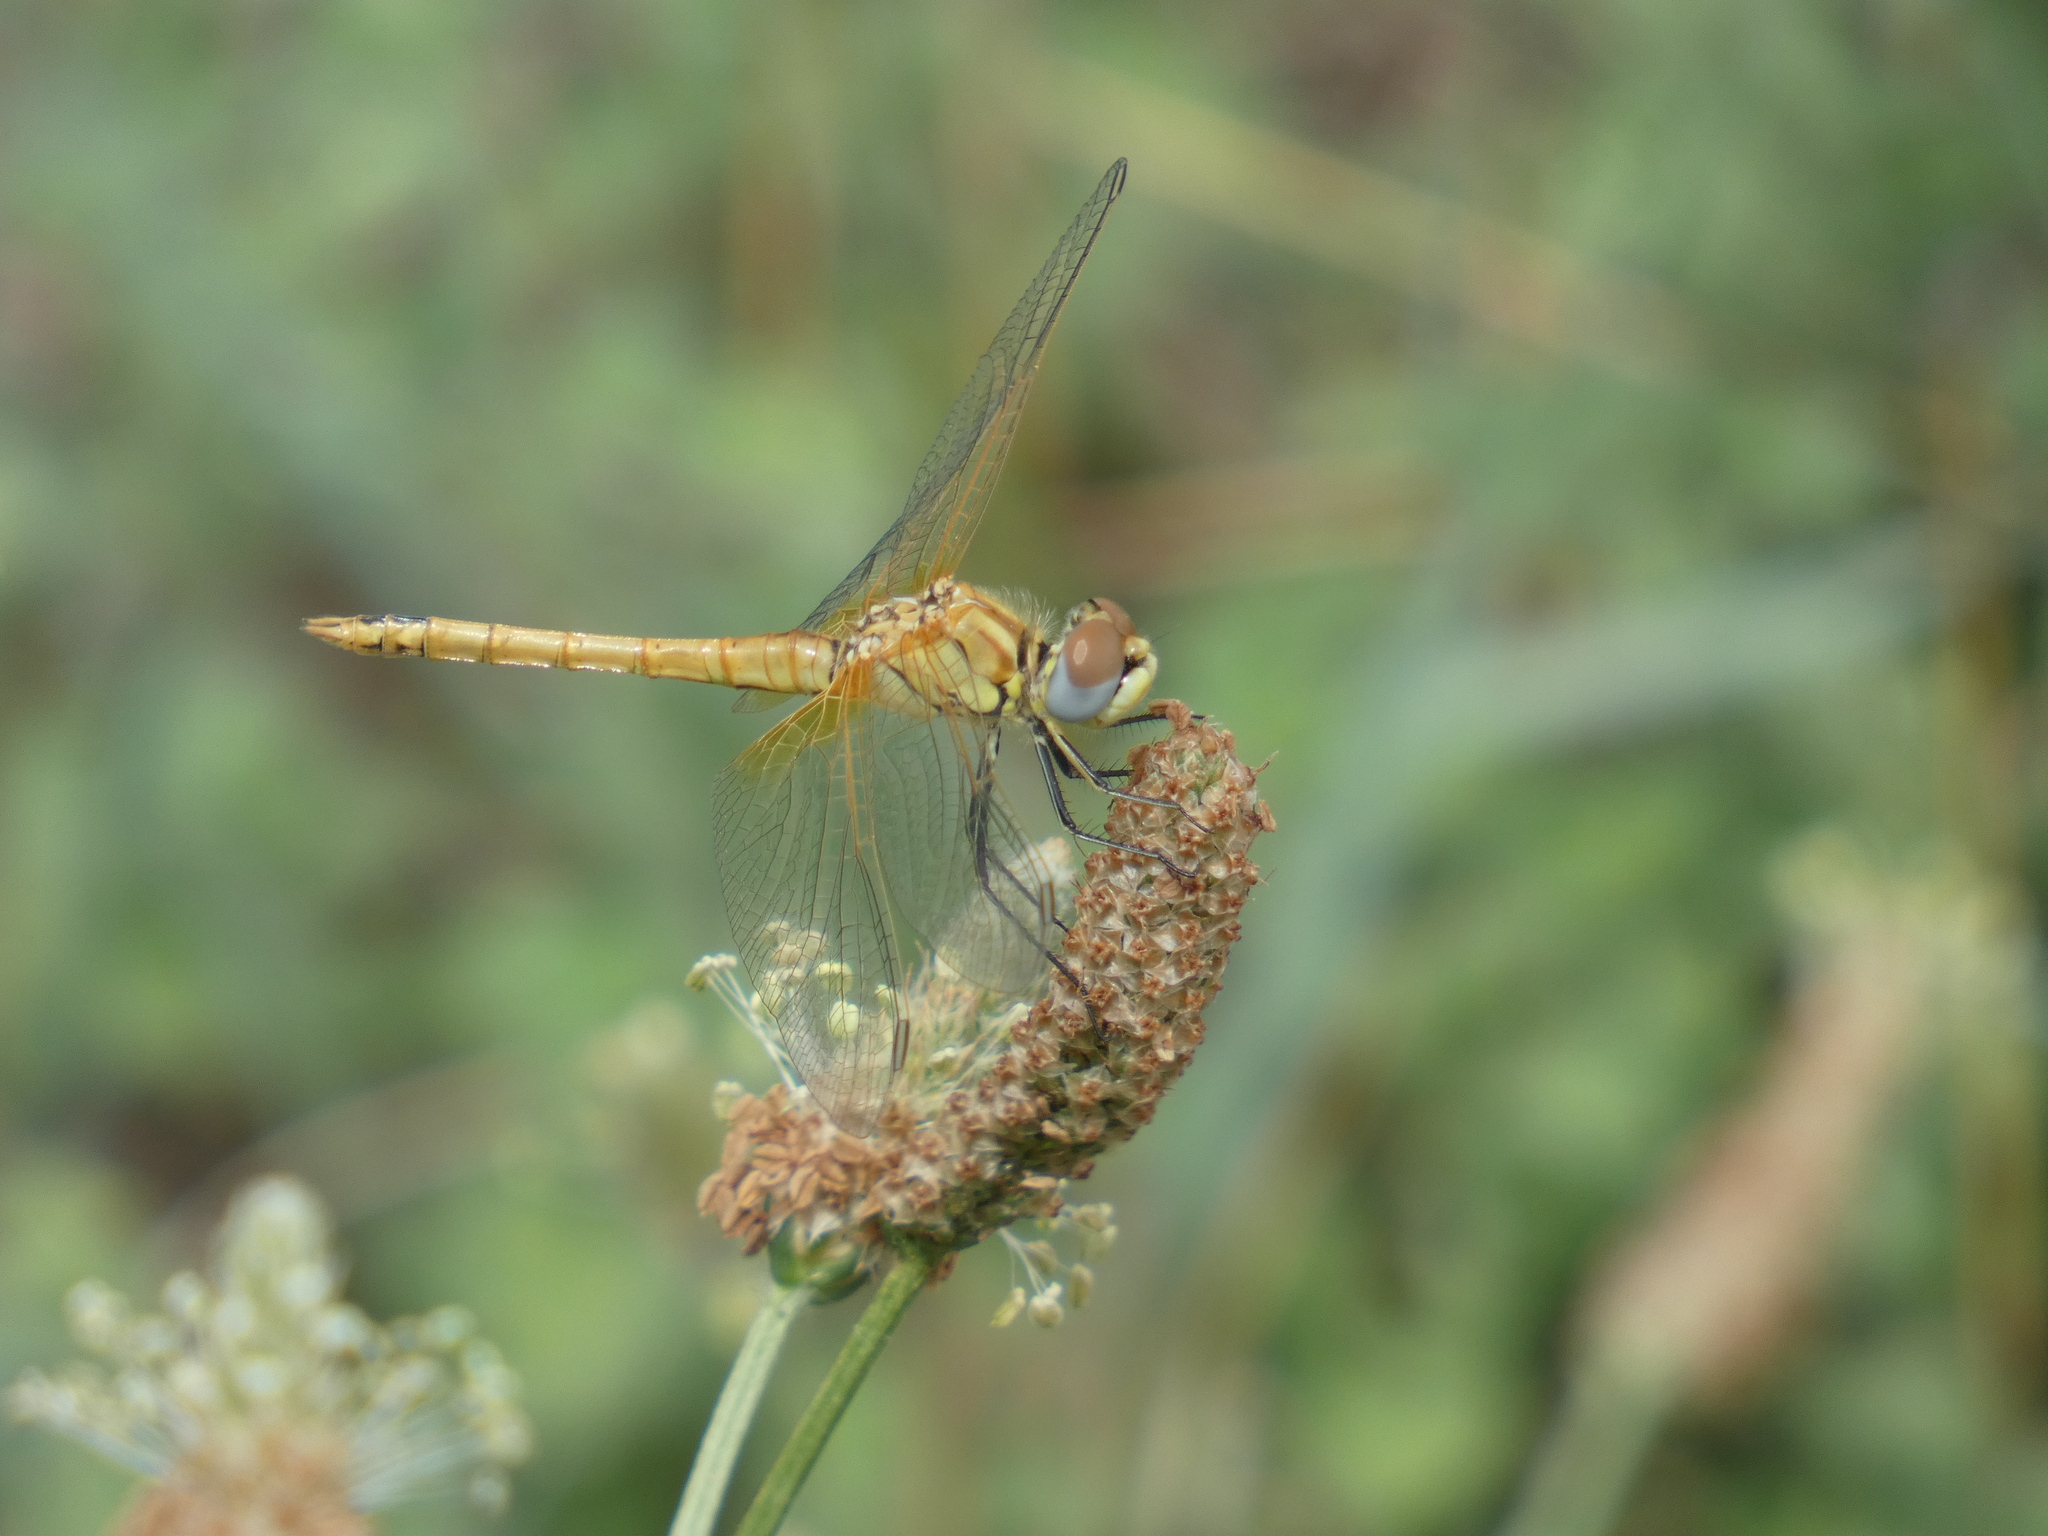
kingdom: Animalia
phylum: Arthropoda
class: Insecta
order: Odonata
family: Libellulidae
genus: Sympetrum
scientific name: Sympetrum fonscolombii
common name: Red-veined darter
